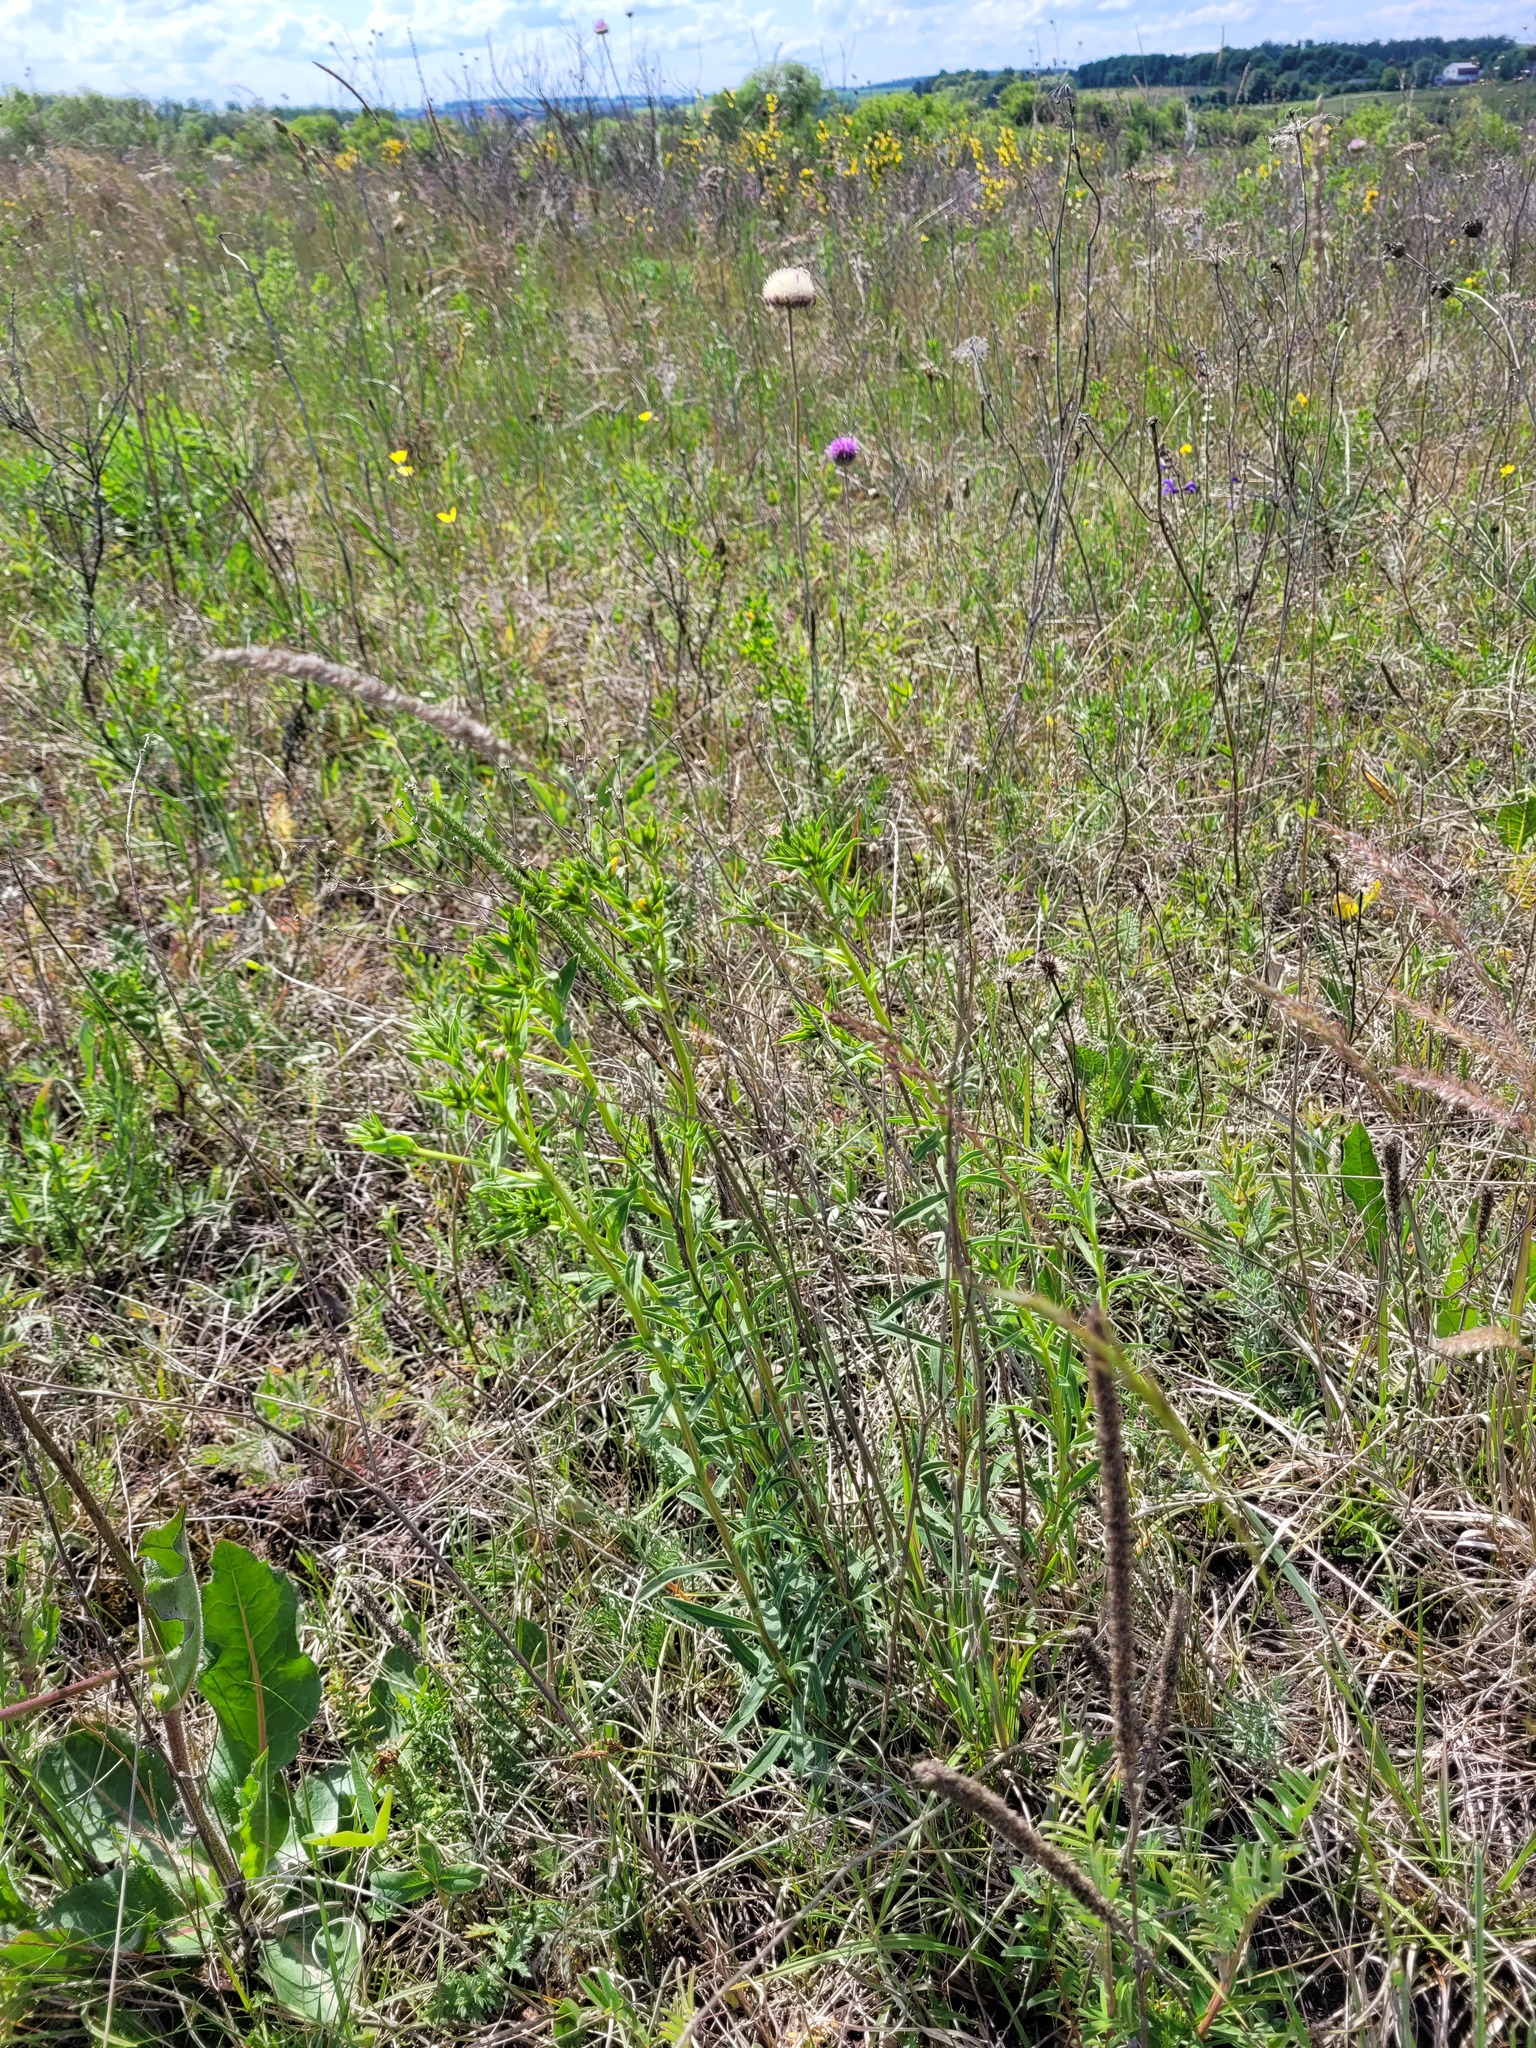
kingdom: Plantae
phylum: Tracheophyta
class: Magnoliopsida
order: Malpighiales
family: Linaceae
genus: Linum
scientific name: Linum flavum
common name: Yellow flax
